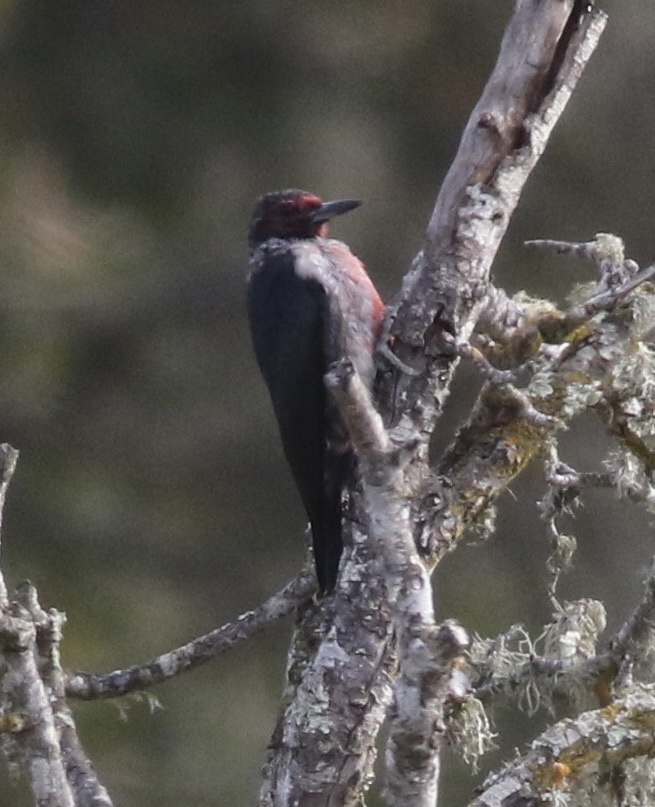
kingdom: Animalia
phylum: Chordata
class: Aves
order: Piciformes
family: Picidae
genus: Melanerpes
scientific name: Melanerpes lewis
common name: Lewis's woodpecker
